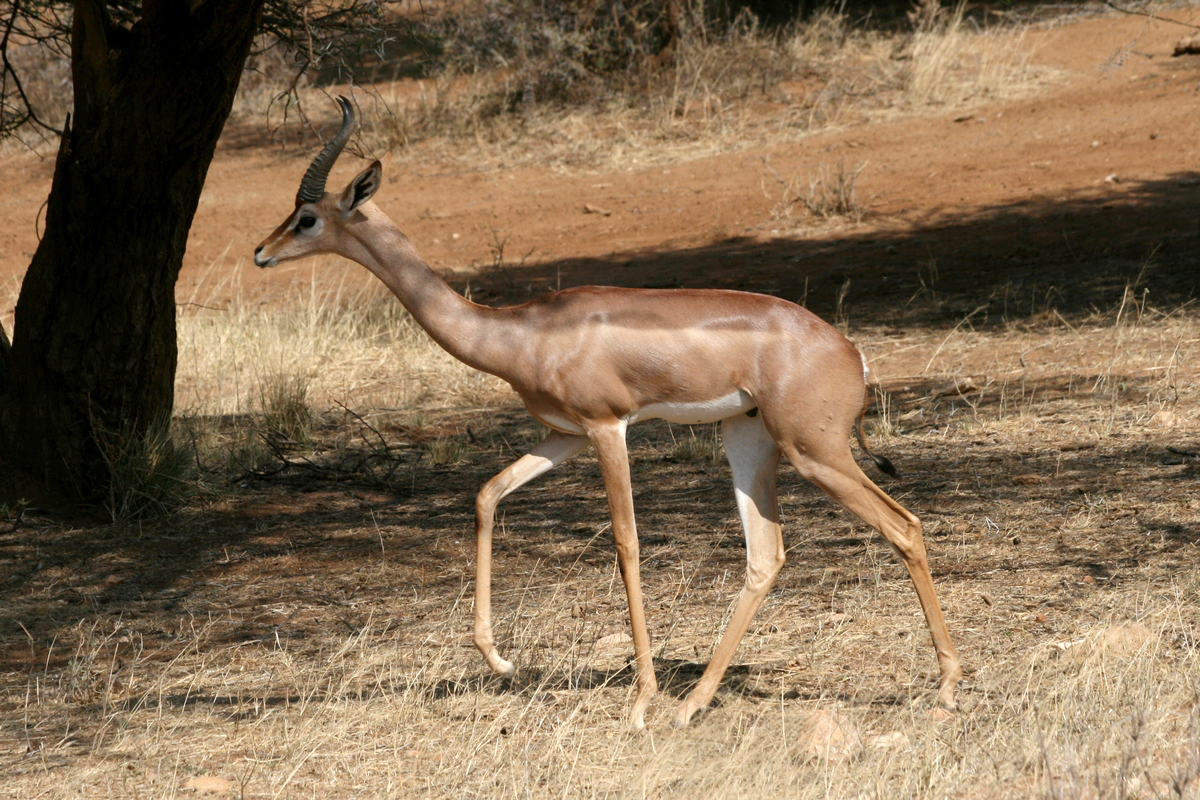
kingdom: Animalia
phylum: Chordata
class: Mammalia
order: Artiodactyla
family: Bovidae
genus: Litocranius
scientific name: Litocranius walleri
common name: Gerenuk
